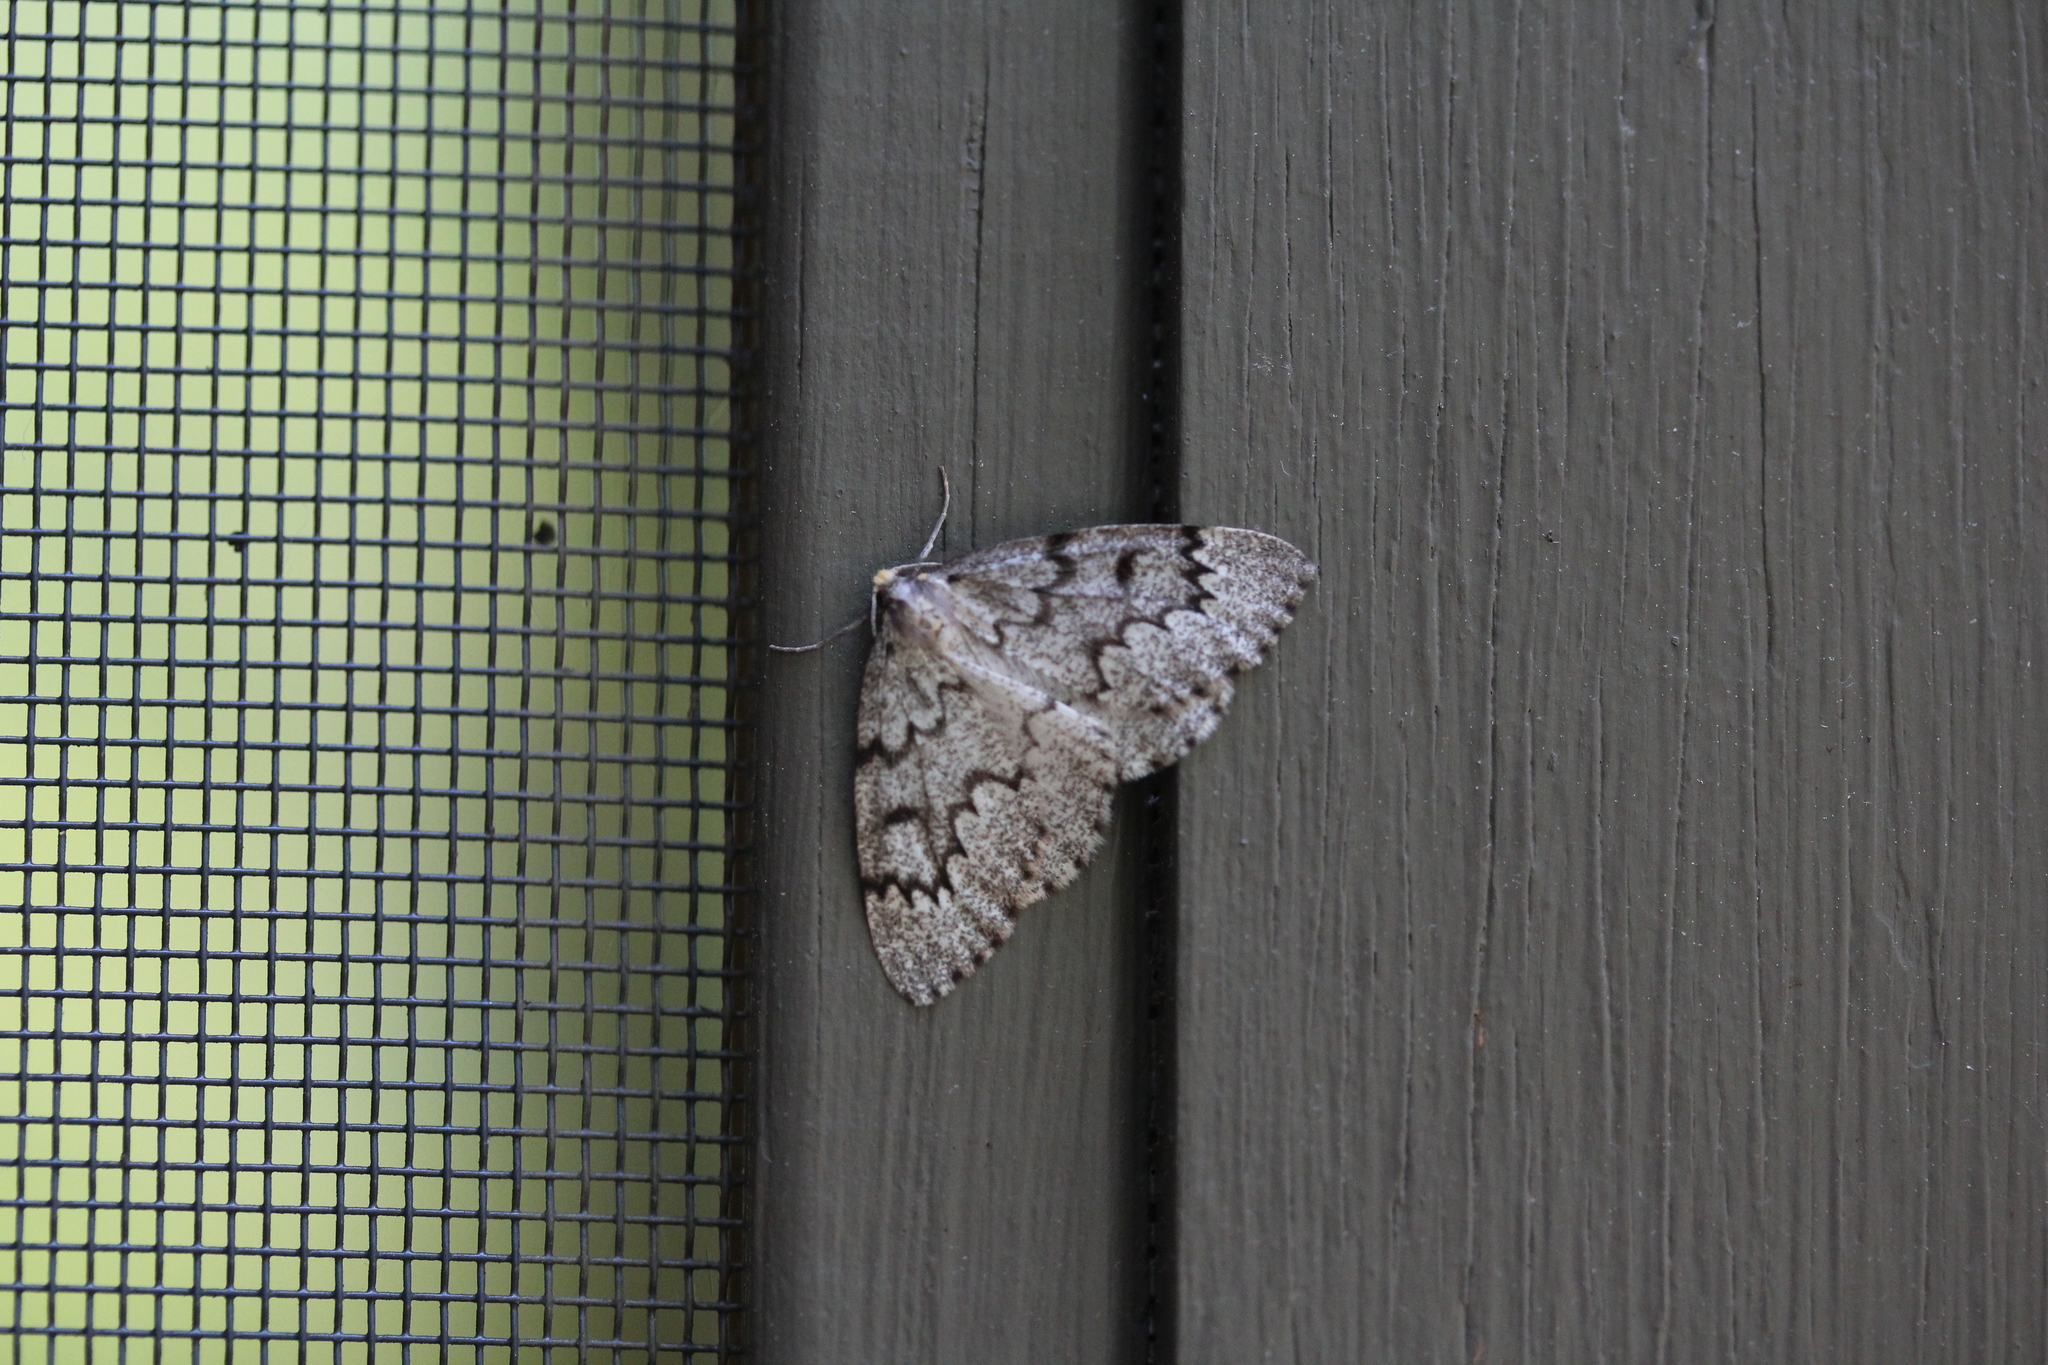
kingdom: Animalia
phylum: Arthropoda
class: Insecta
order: Lepidoptera
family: Geometridae
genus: Nepytia
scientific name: Nepytia canosaria
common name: False hemlock looper
